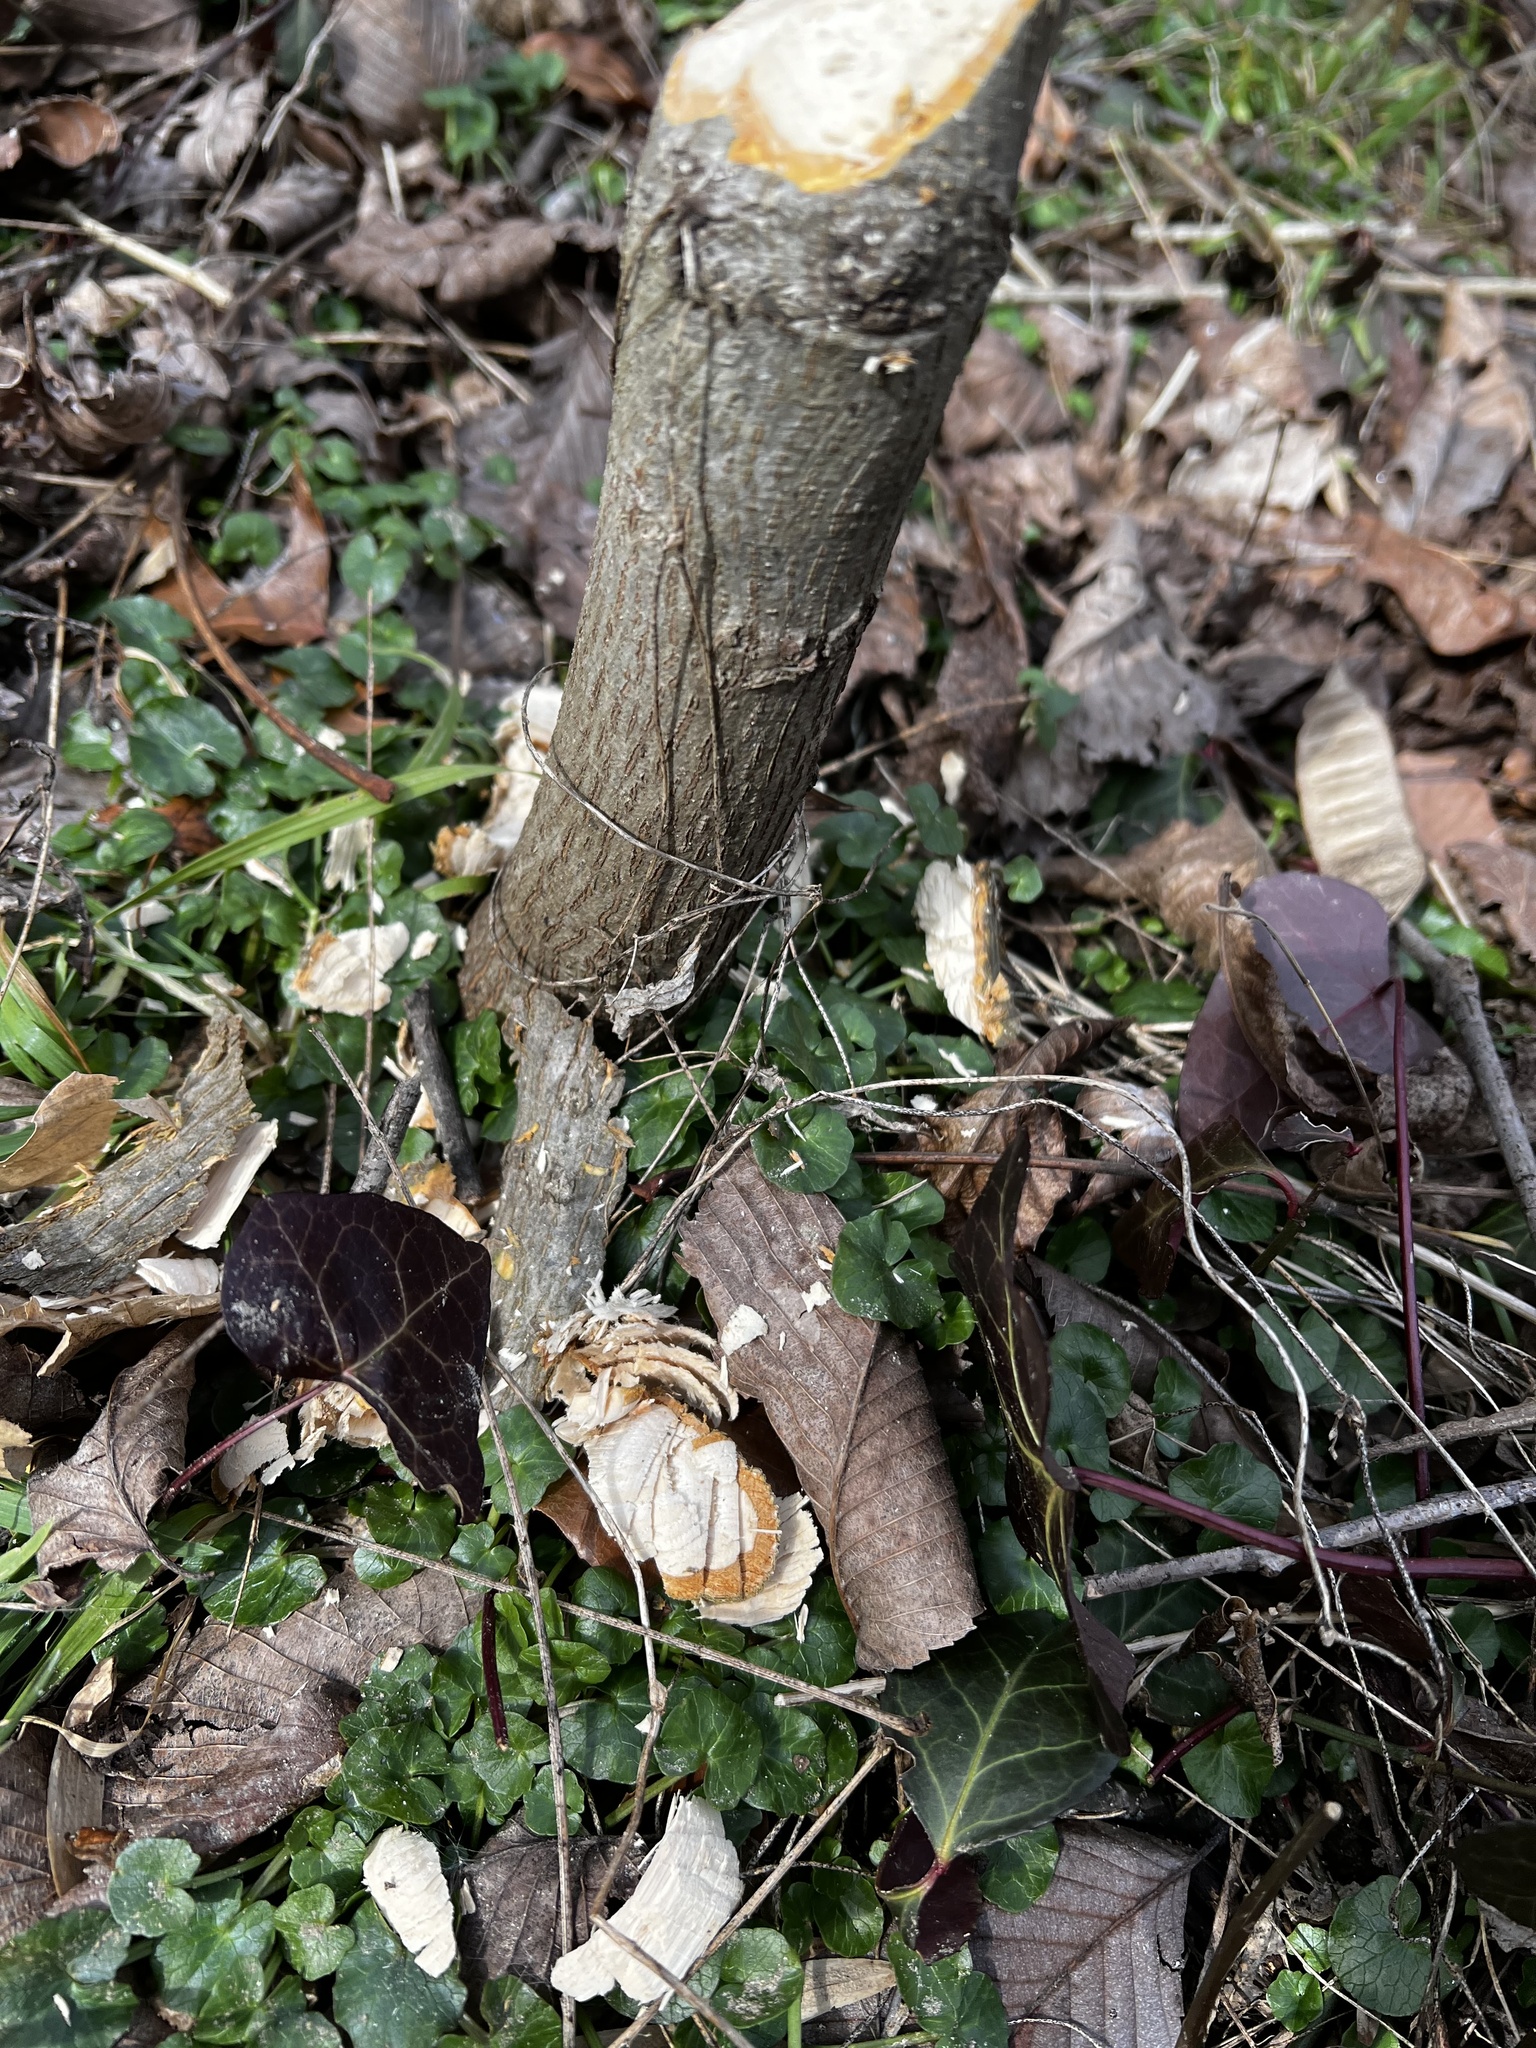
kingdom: Animalia
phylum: Chordata
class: Mammalia
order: Rodentia
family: Castoridae
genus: Castor
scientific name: Castor canadensis
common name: American beaver
